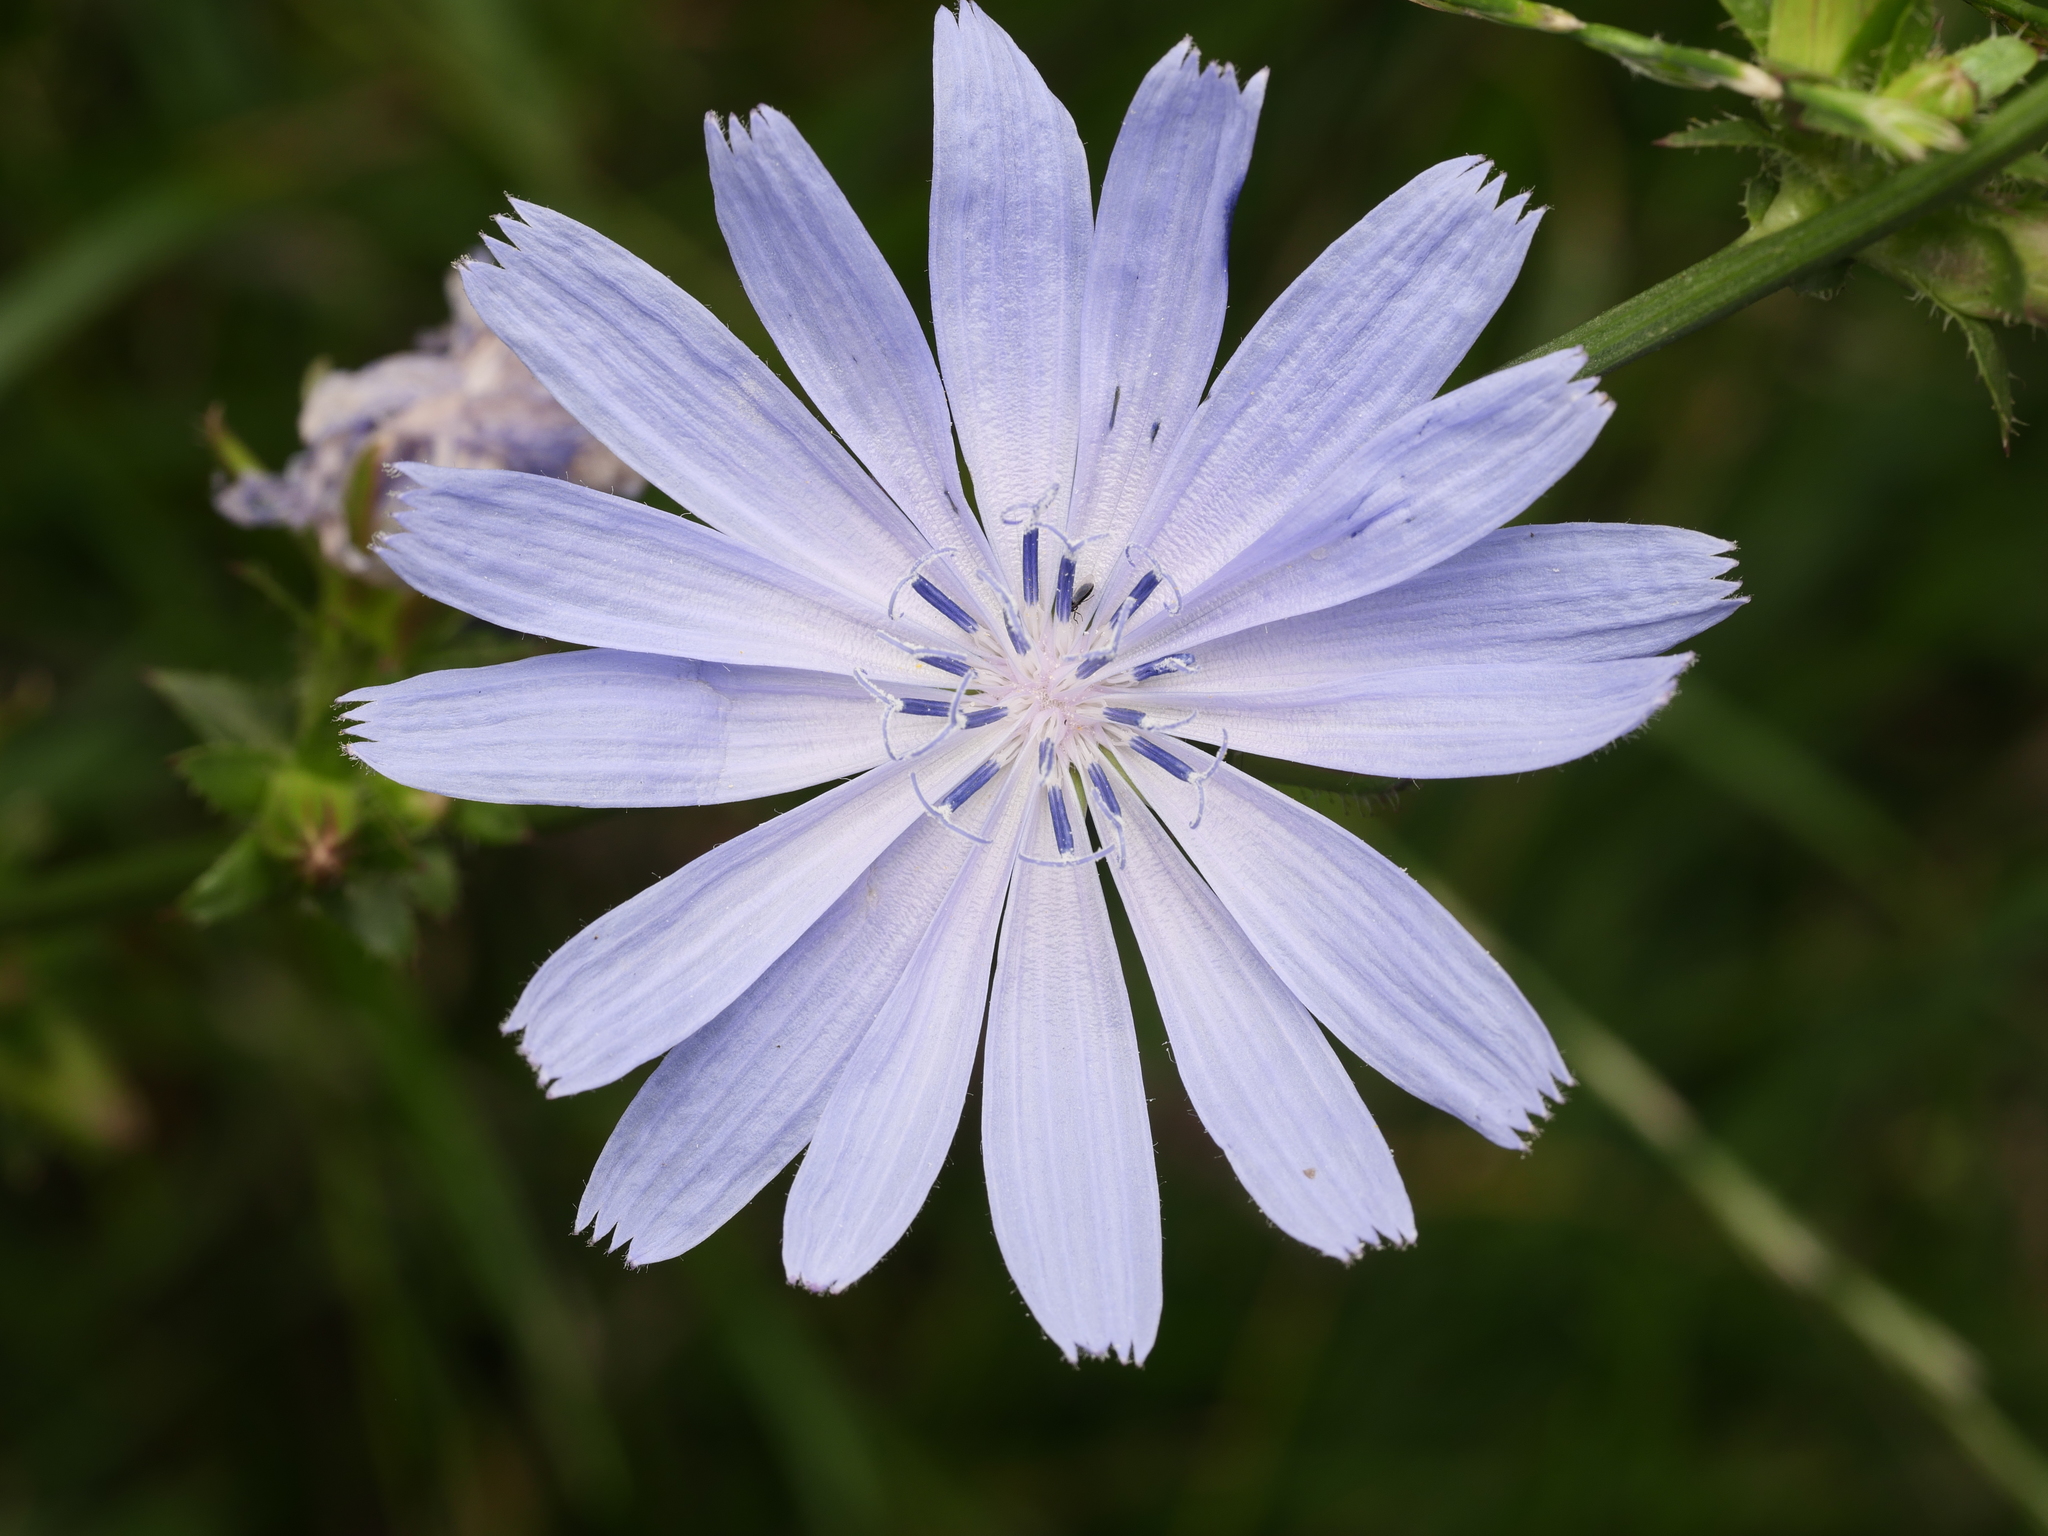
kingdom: Plantae
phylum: Tracheophyta
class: Magnoliopsida
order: Asterales
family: Asteraceae
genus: Cichorium
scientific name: Cichorium intybus
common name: Chicory
